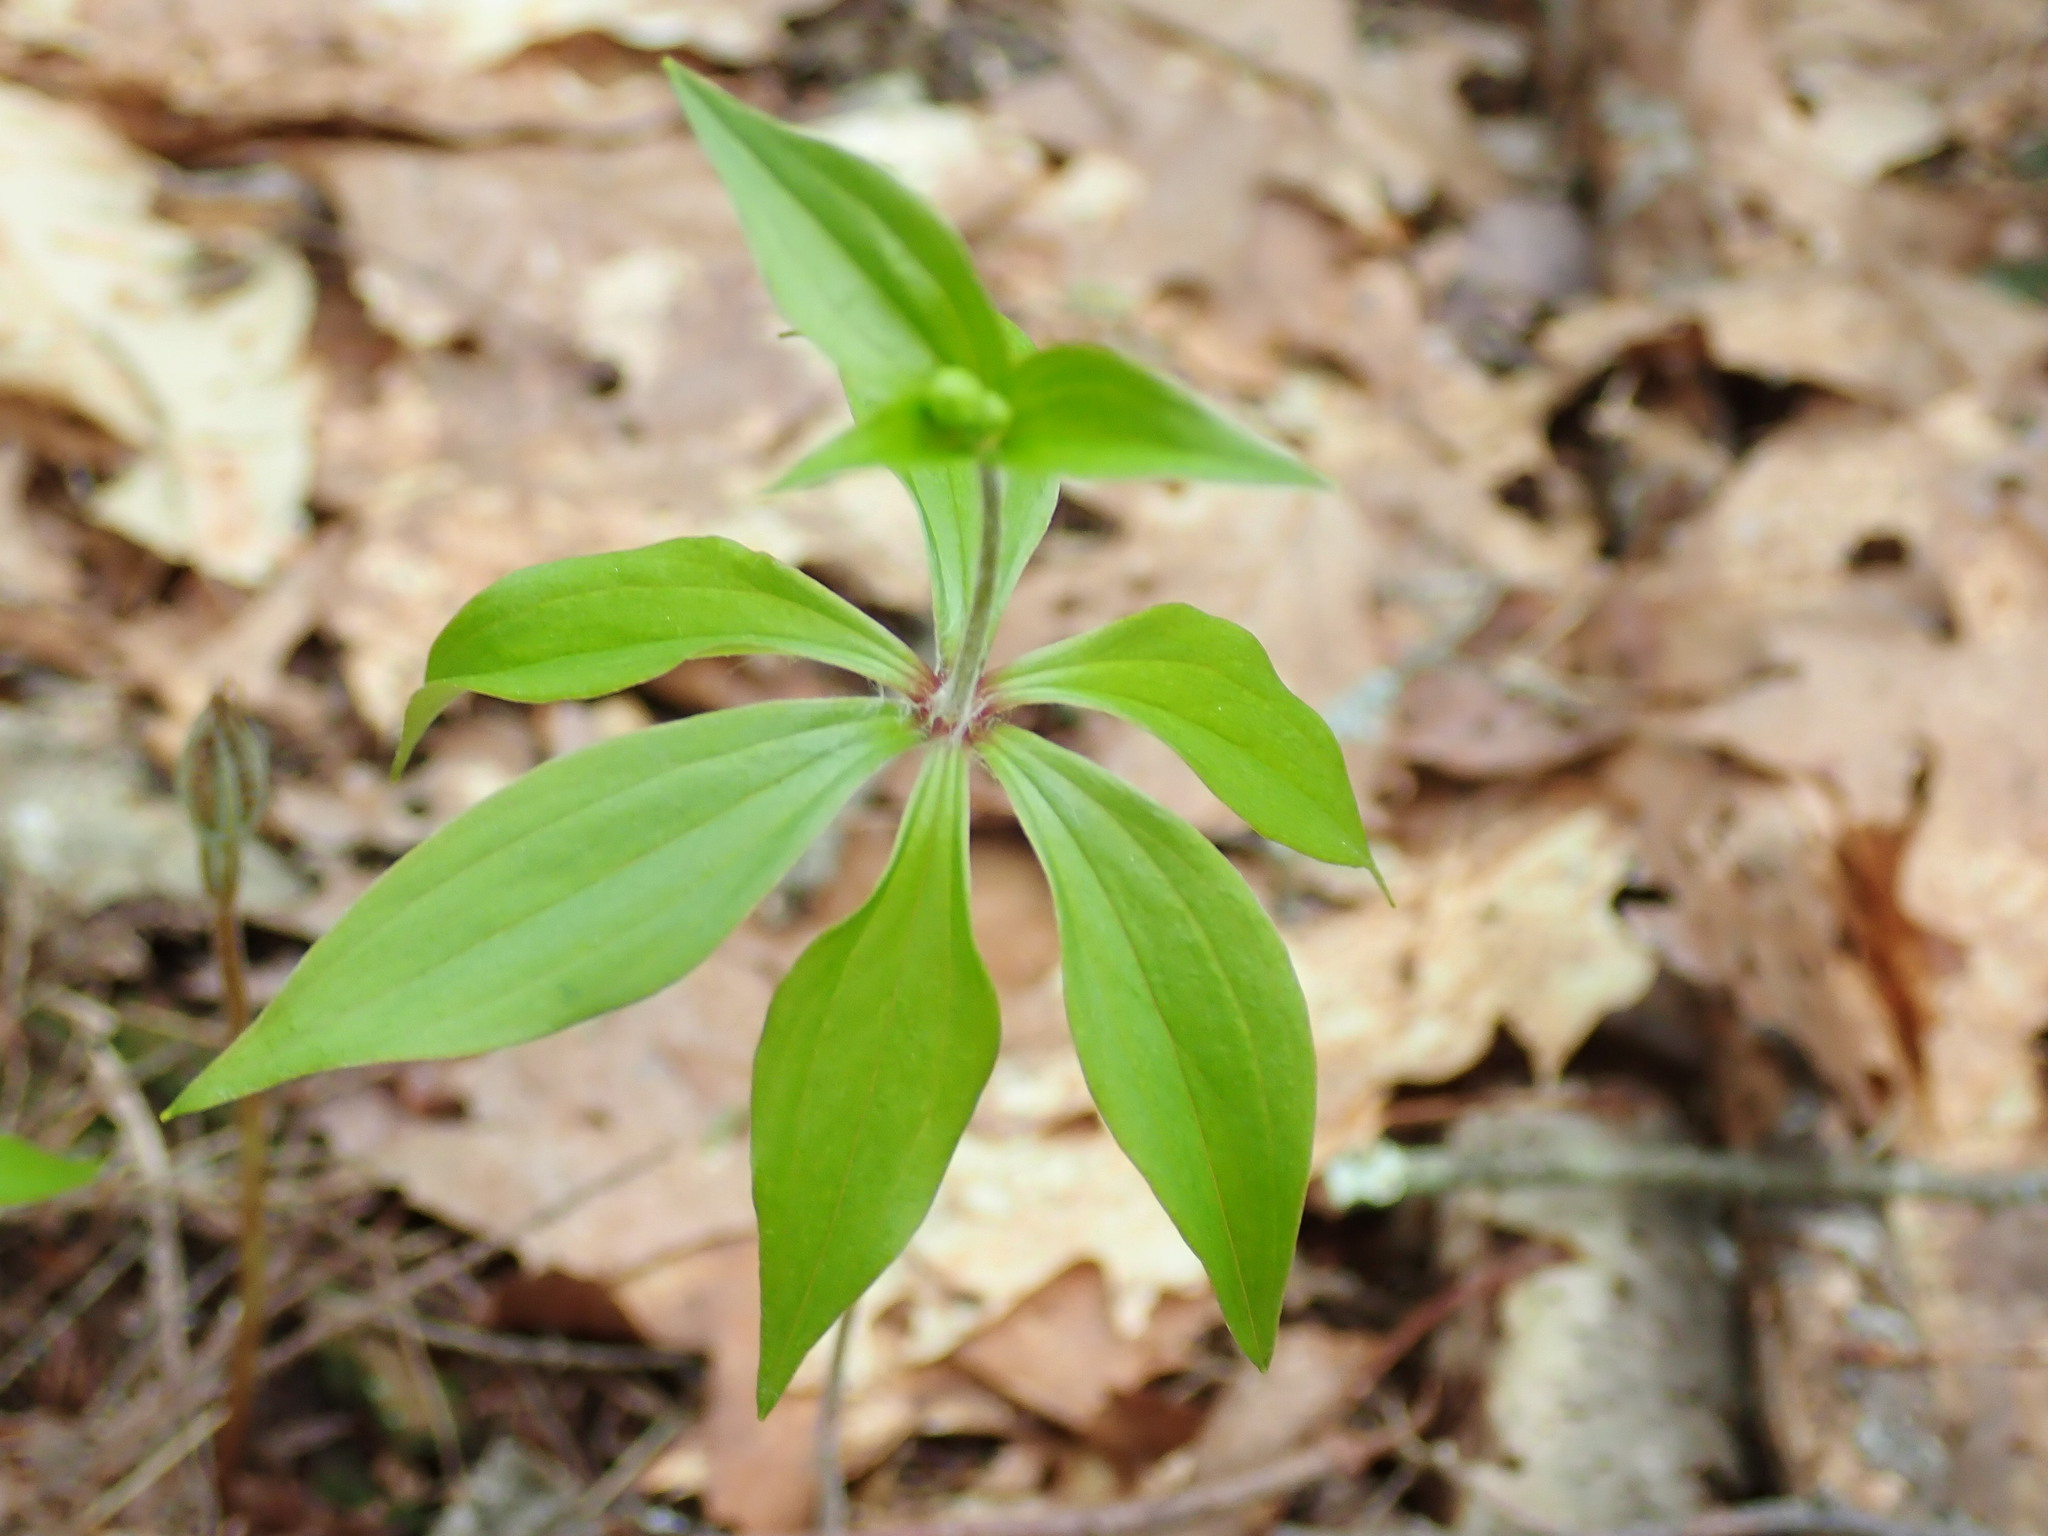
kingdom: Plantae
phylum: Tracheophyta
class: Liliopsida
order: Liliales
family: Liliaceae
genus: Medeola
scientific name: Medeola virginiana
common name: Indian cucumber-root
